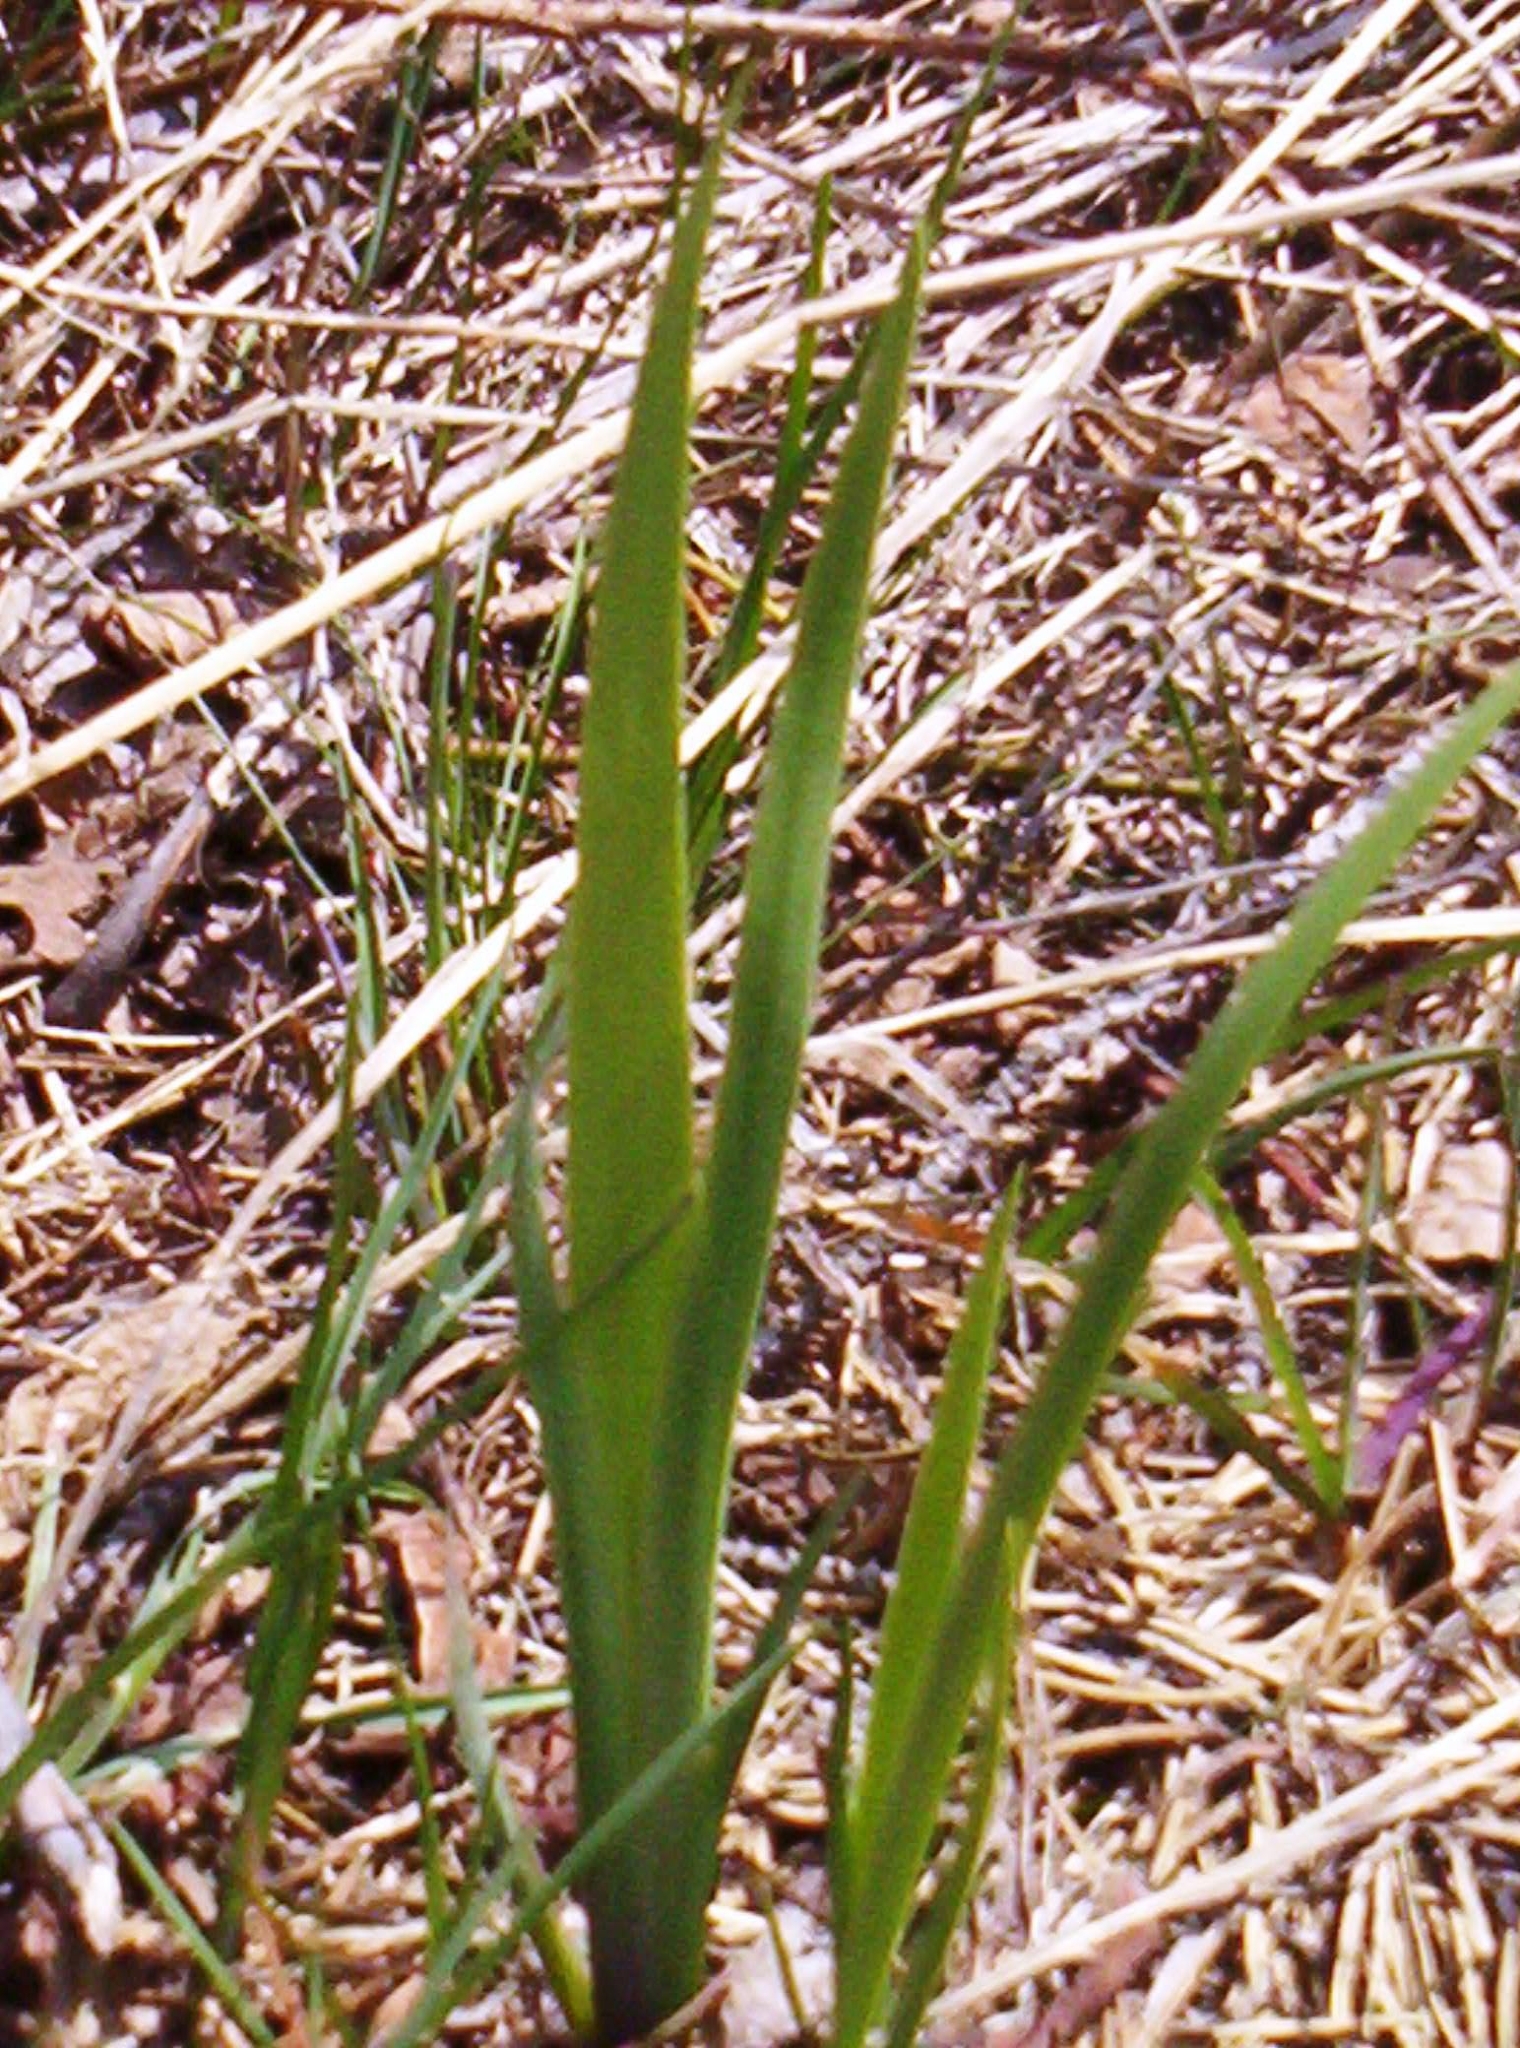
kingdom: Plantae
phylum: Tracheophyta
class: Liliopsida
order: Asparagales
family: Iridaceae
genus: Iris
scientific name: Iris lacustris
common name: Dwarf lake iris
